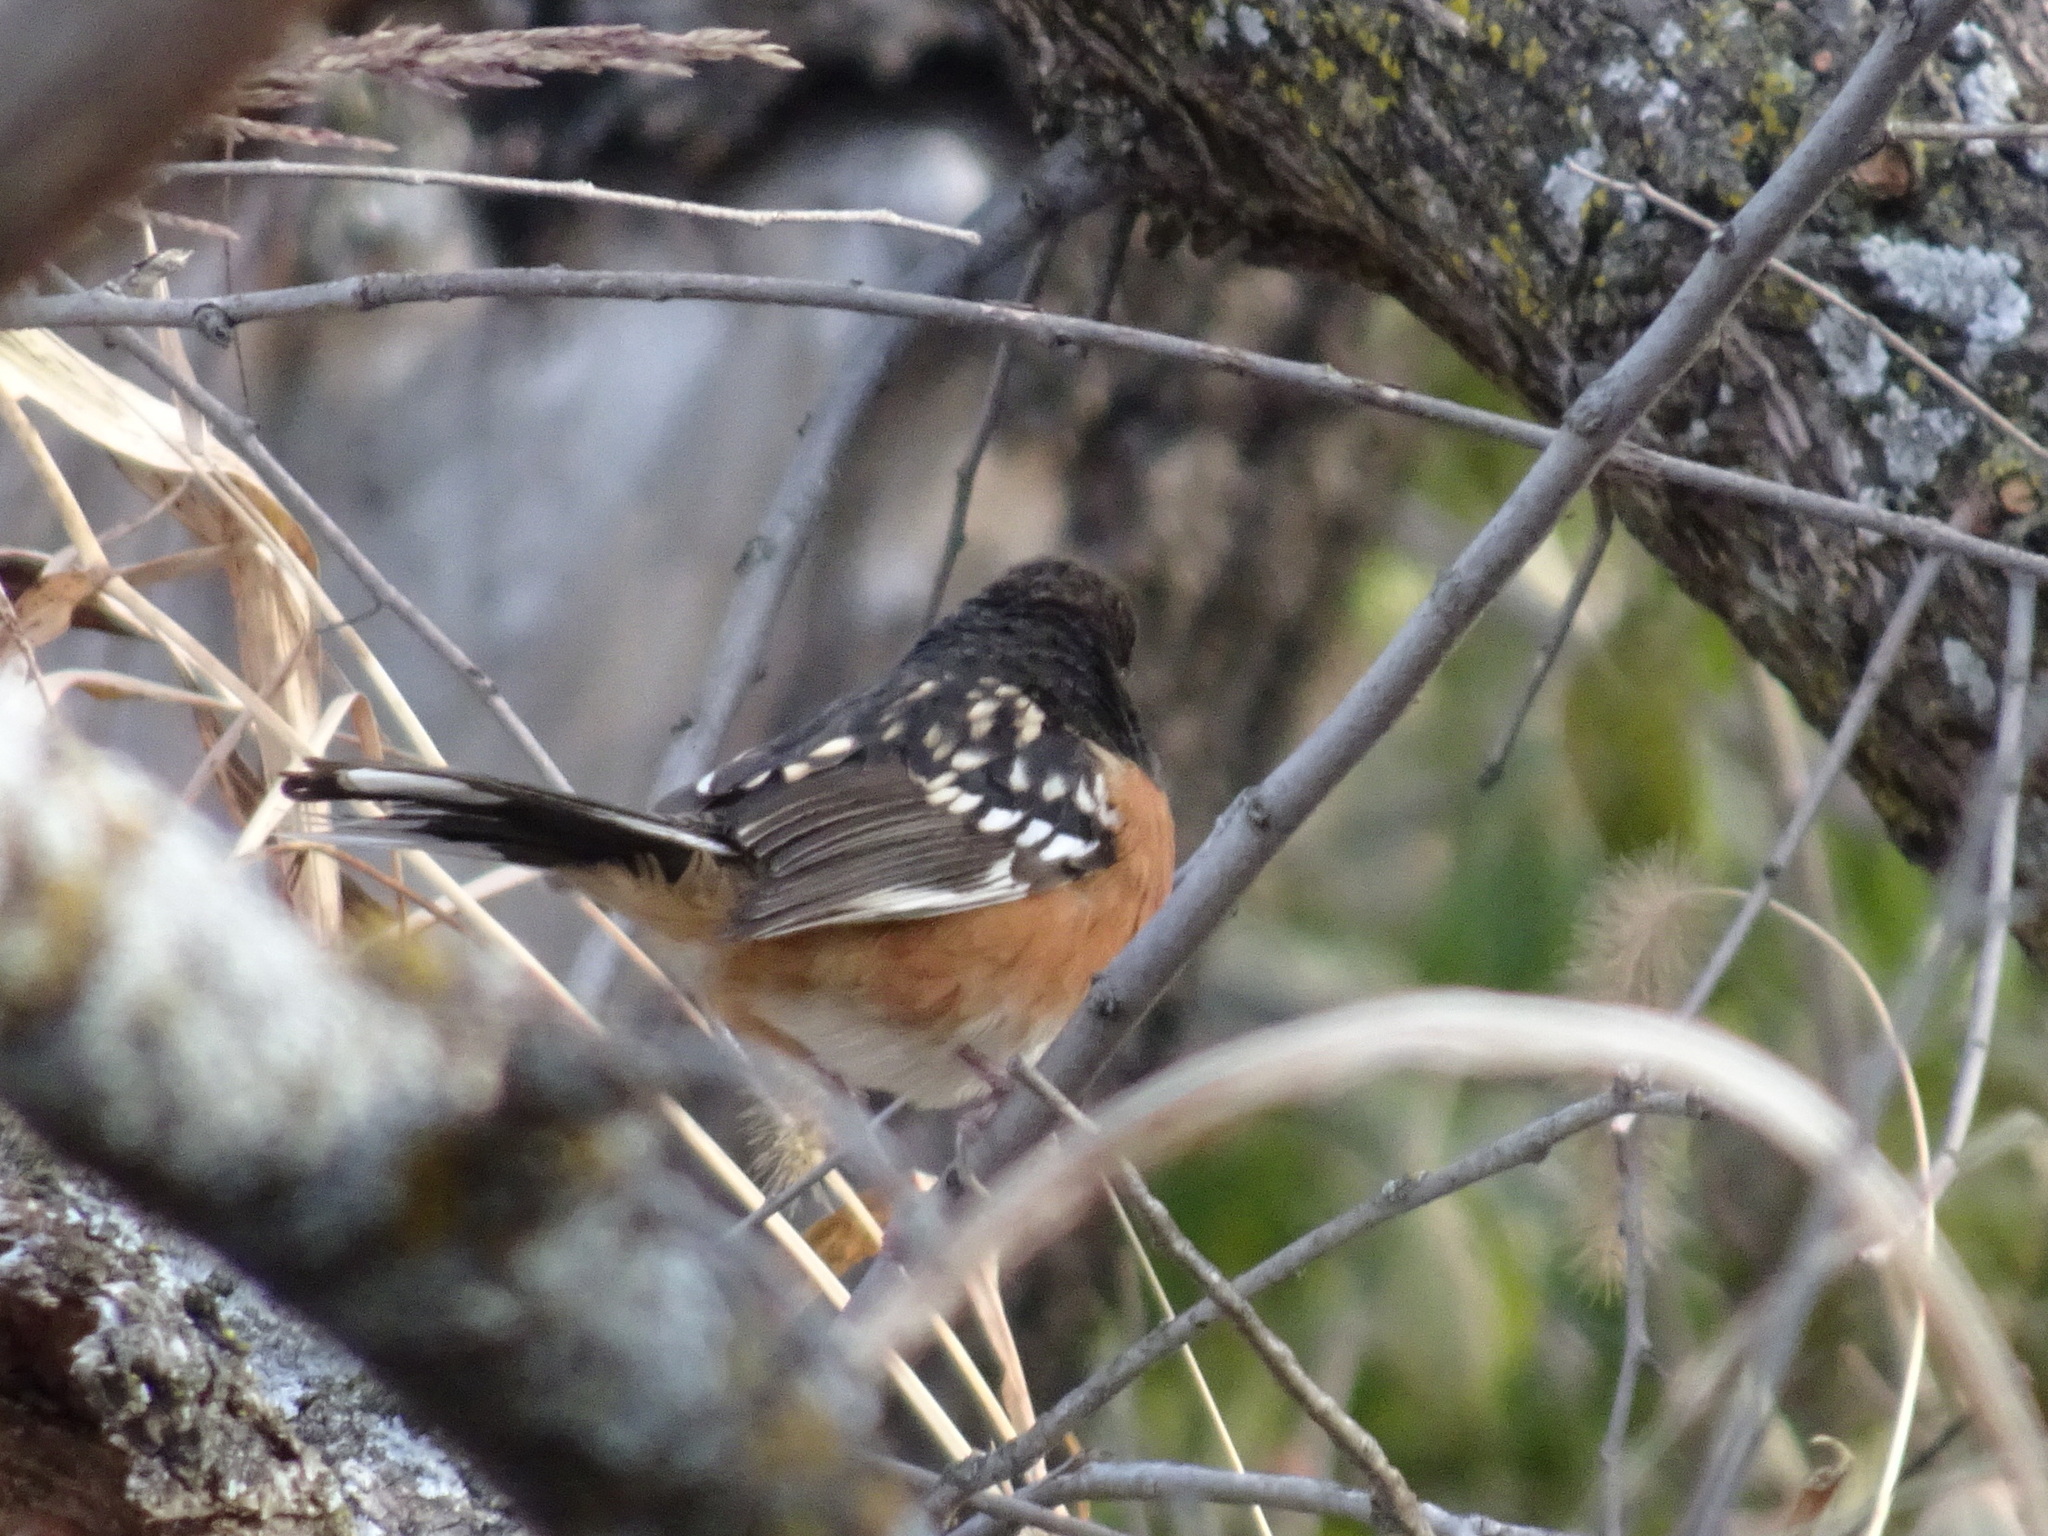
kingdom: Animalia
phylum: Chordata
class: Aves
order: Passeriformes
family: Passerellidae
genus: Pipilo
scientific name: Pipilo maculatus
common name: Spotted towhee
